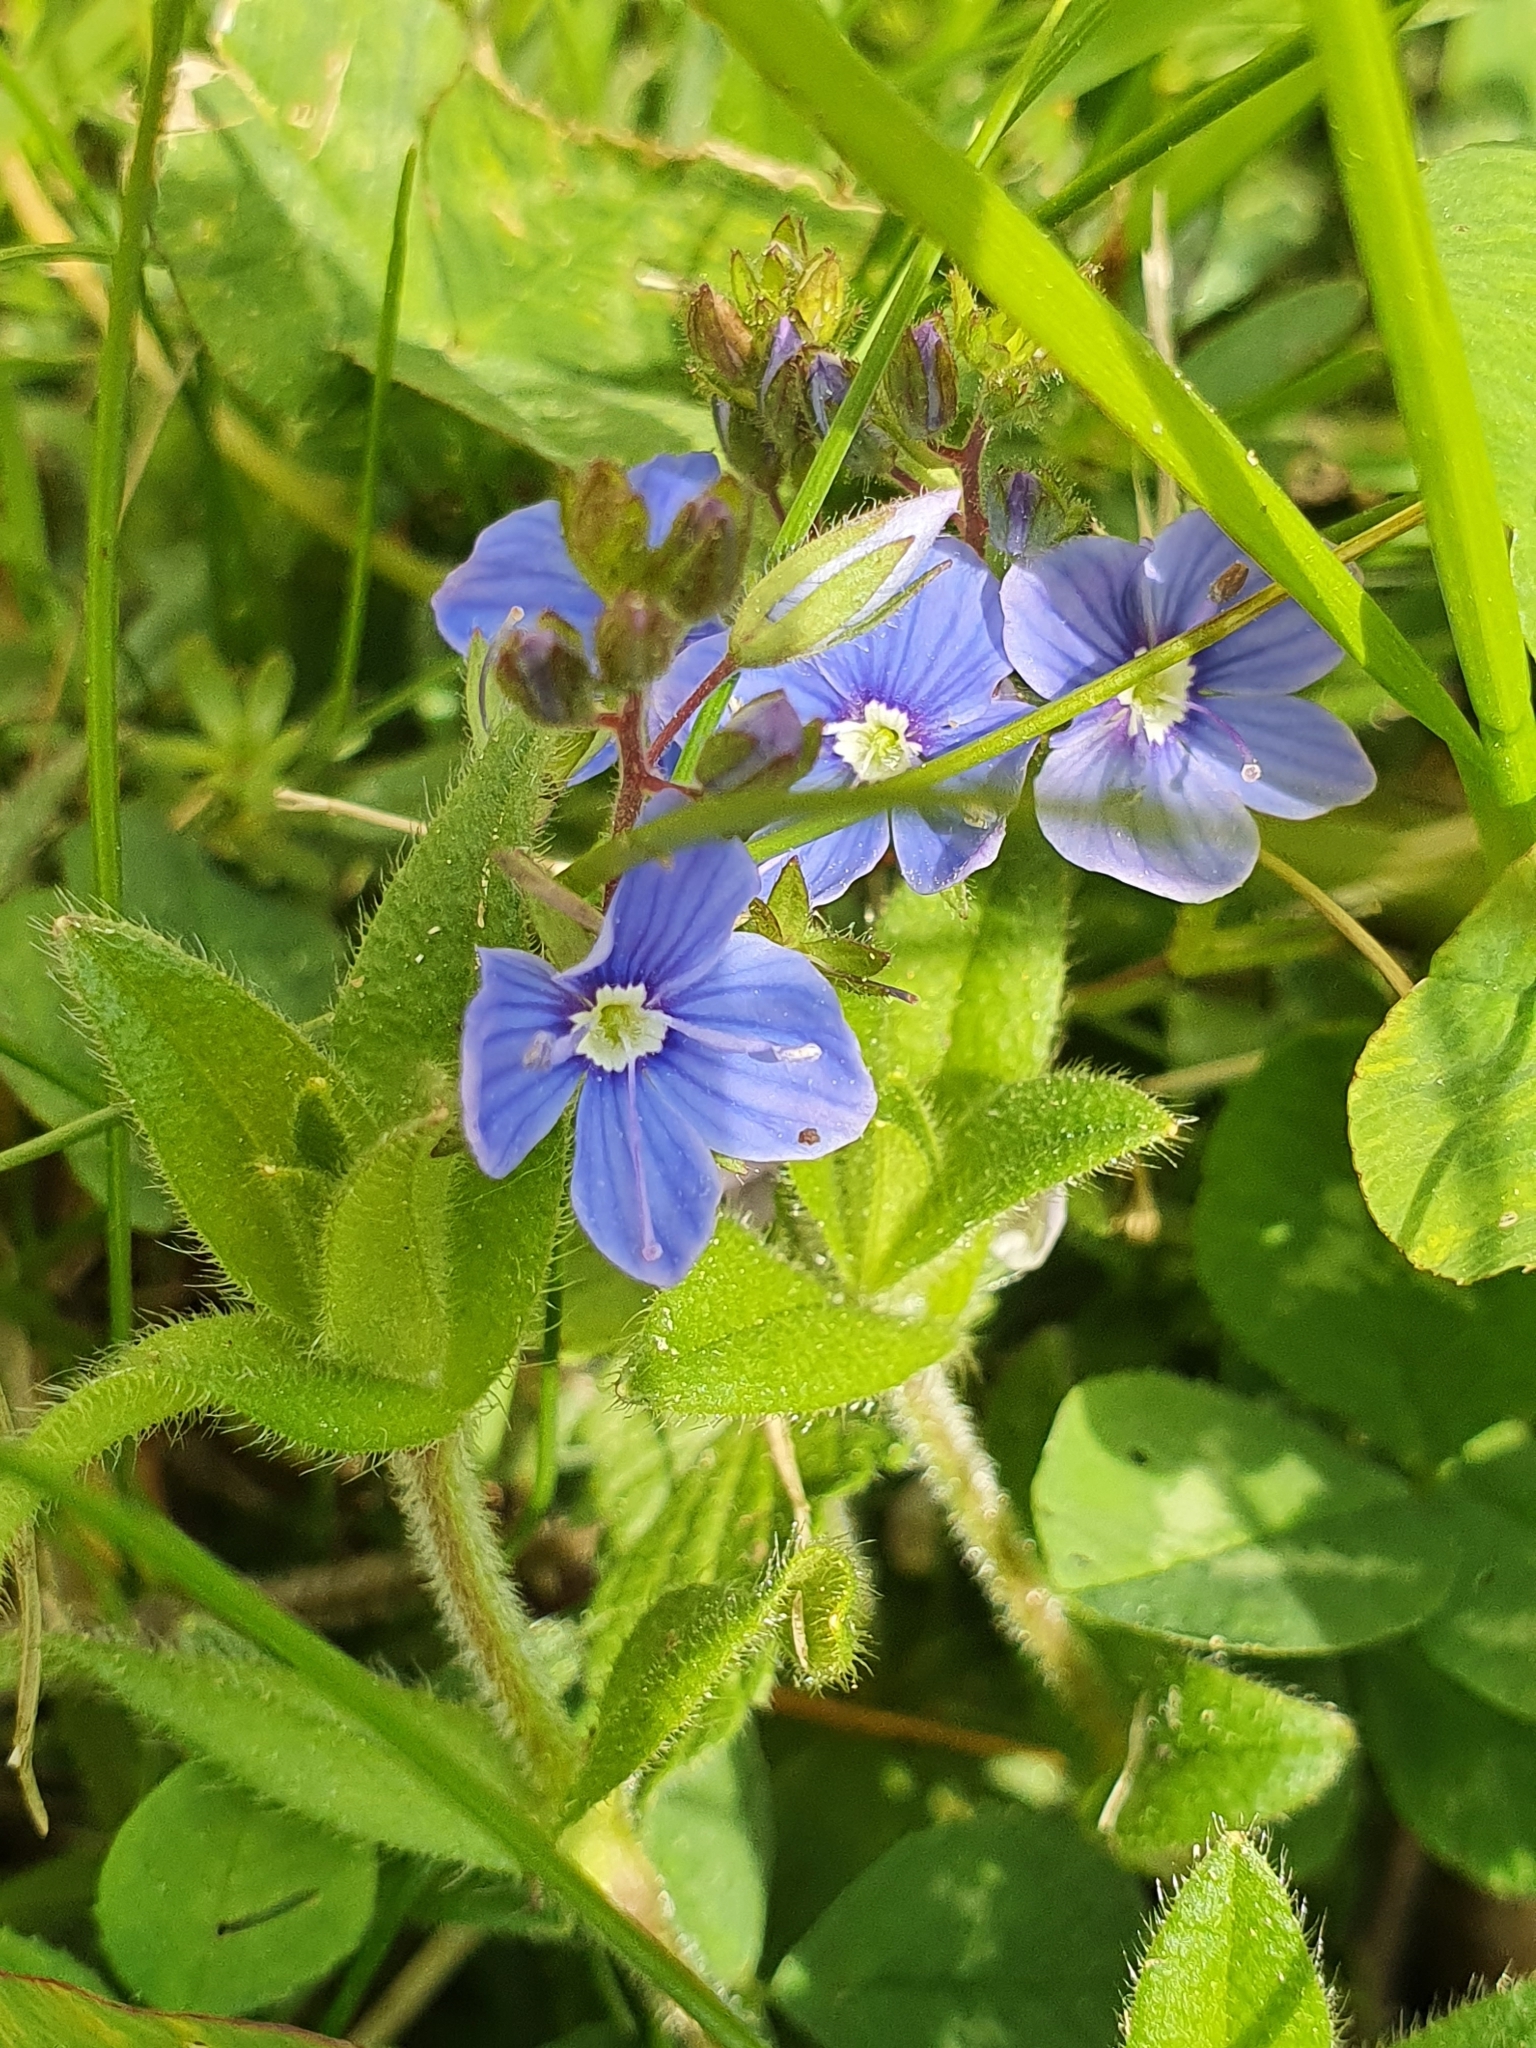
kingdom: Plantae
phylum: Tracheophyta
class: Magnoliopsida
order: Lamiales
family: Plantaginaceae
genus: Veronica
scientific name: Veronica chamaedrys
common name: Germander speedwell
